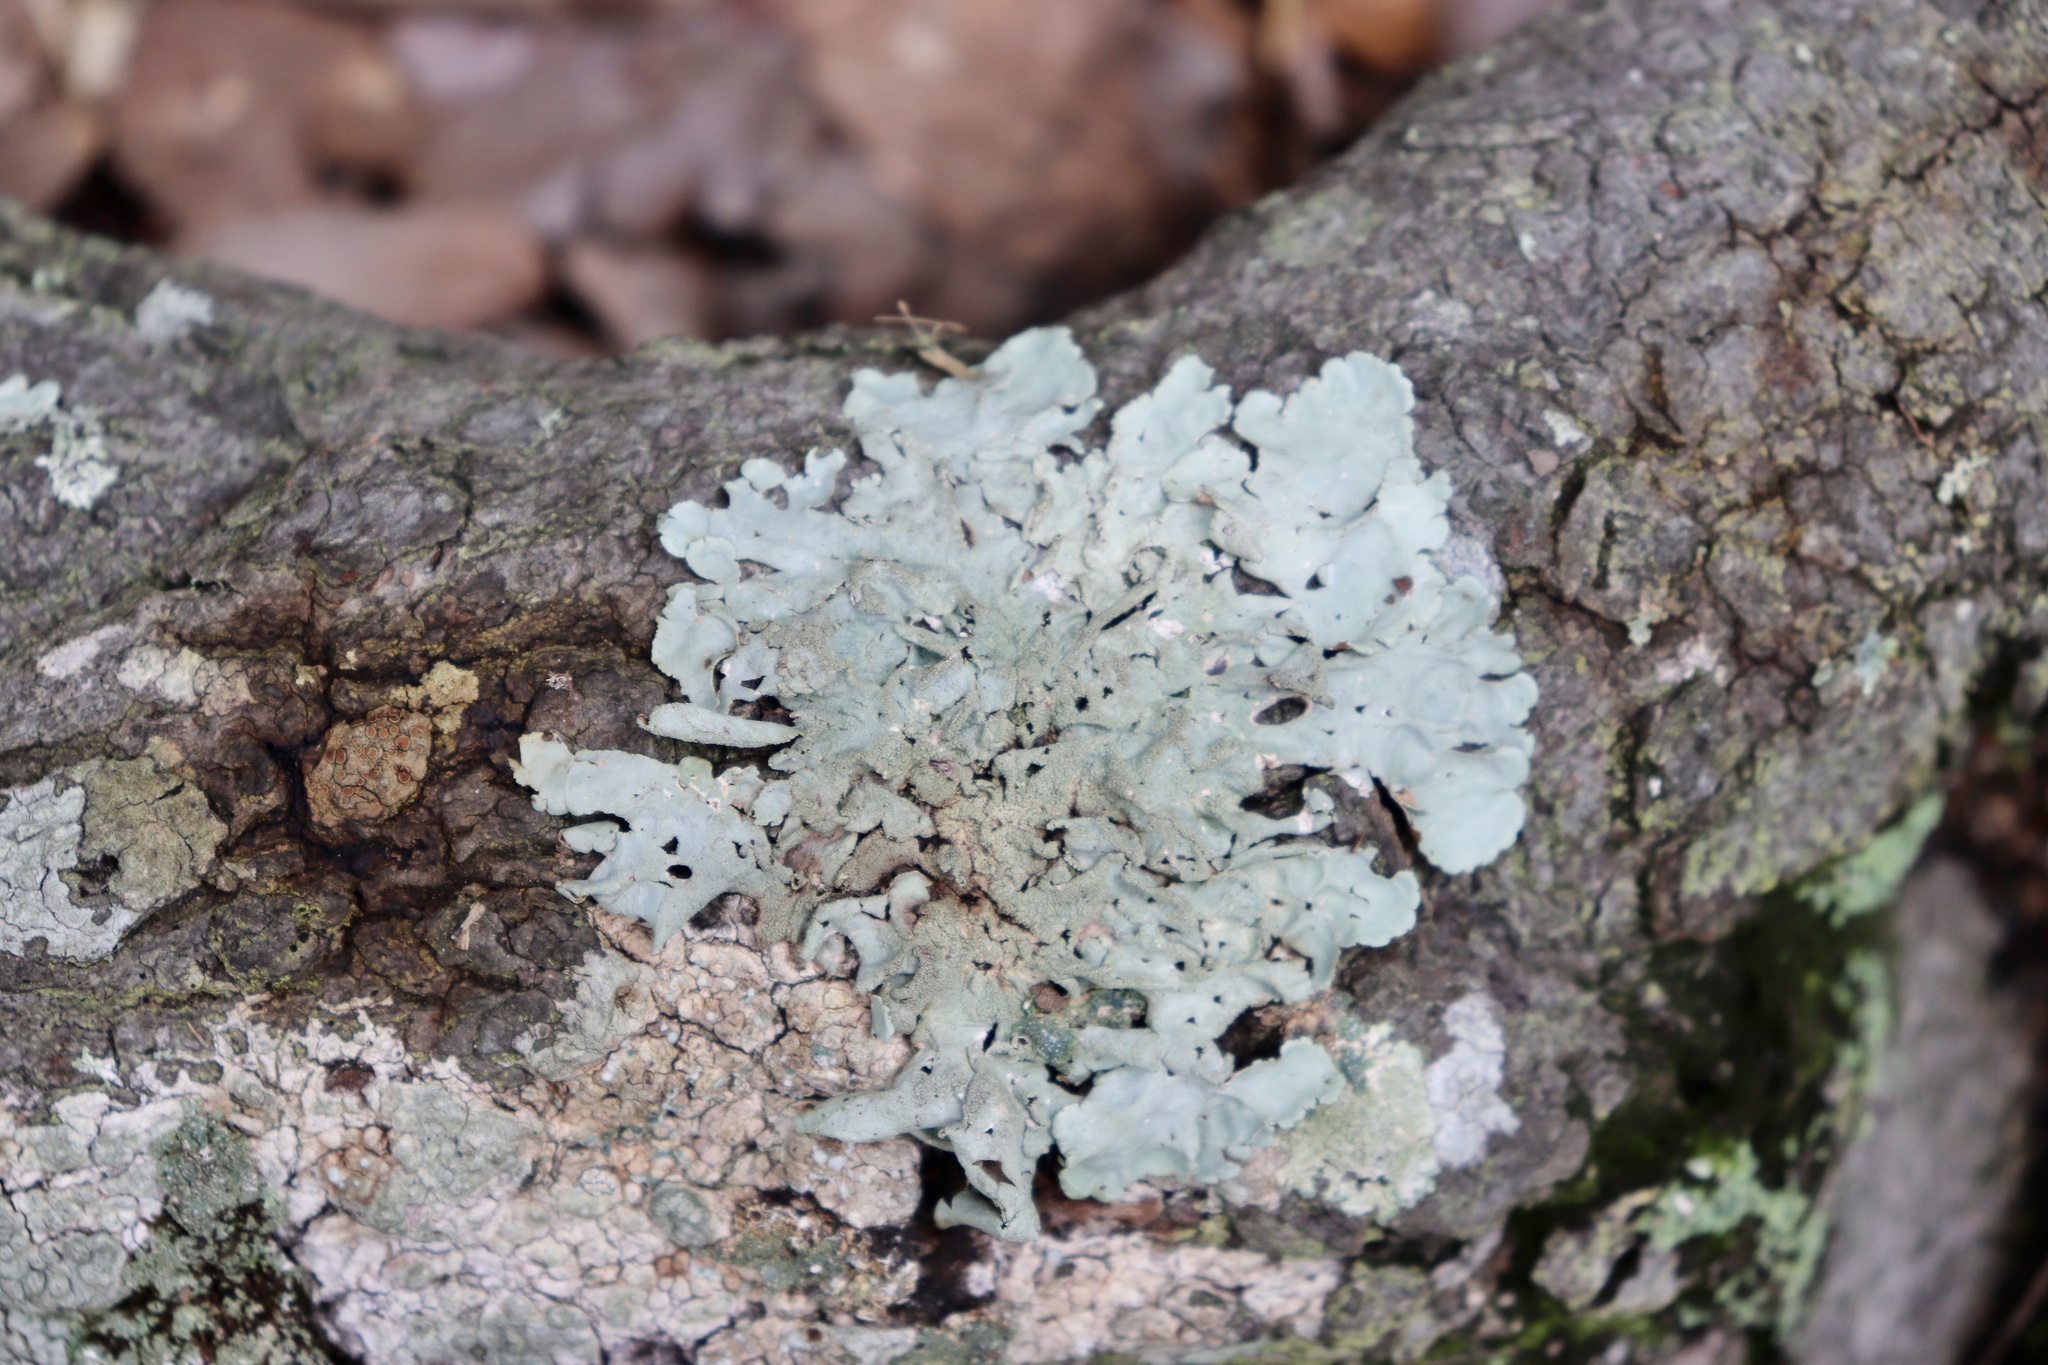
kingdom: Fungi
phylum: Ascomycota
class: Lecanoromycetes
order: Lecanorales
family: Parmeliaceae
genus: Parmotrema
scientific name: Parmotrema tinctorum
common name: Old gray ruffles
